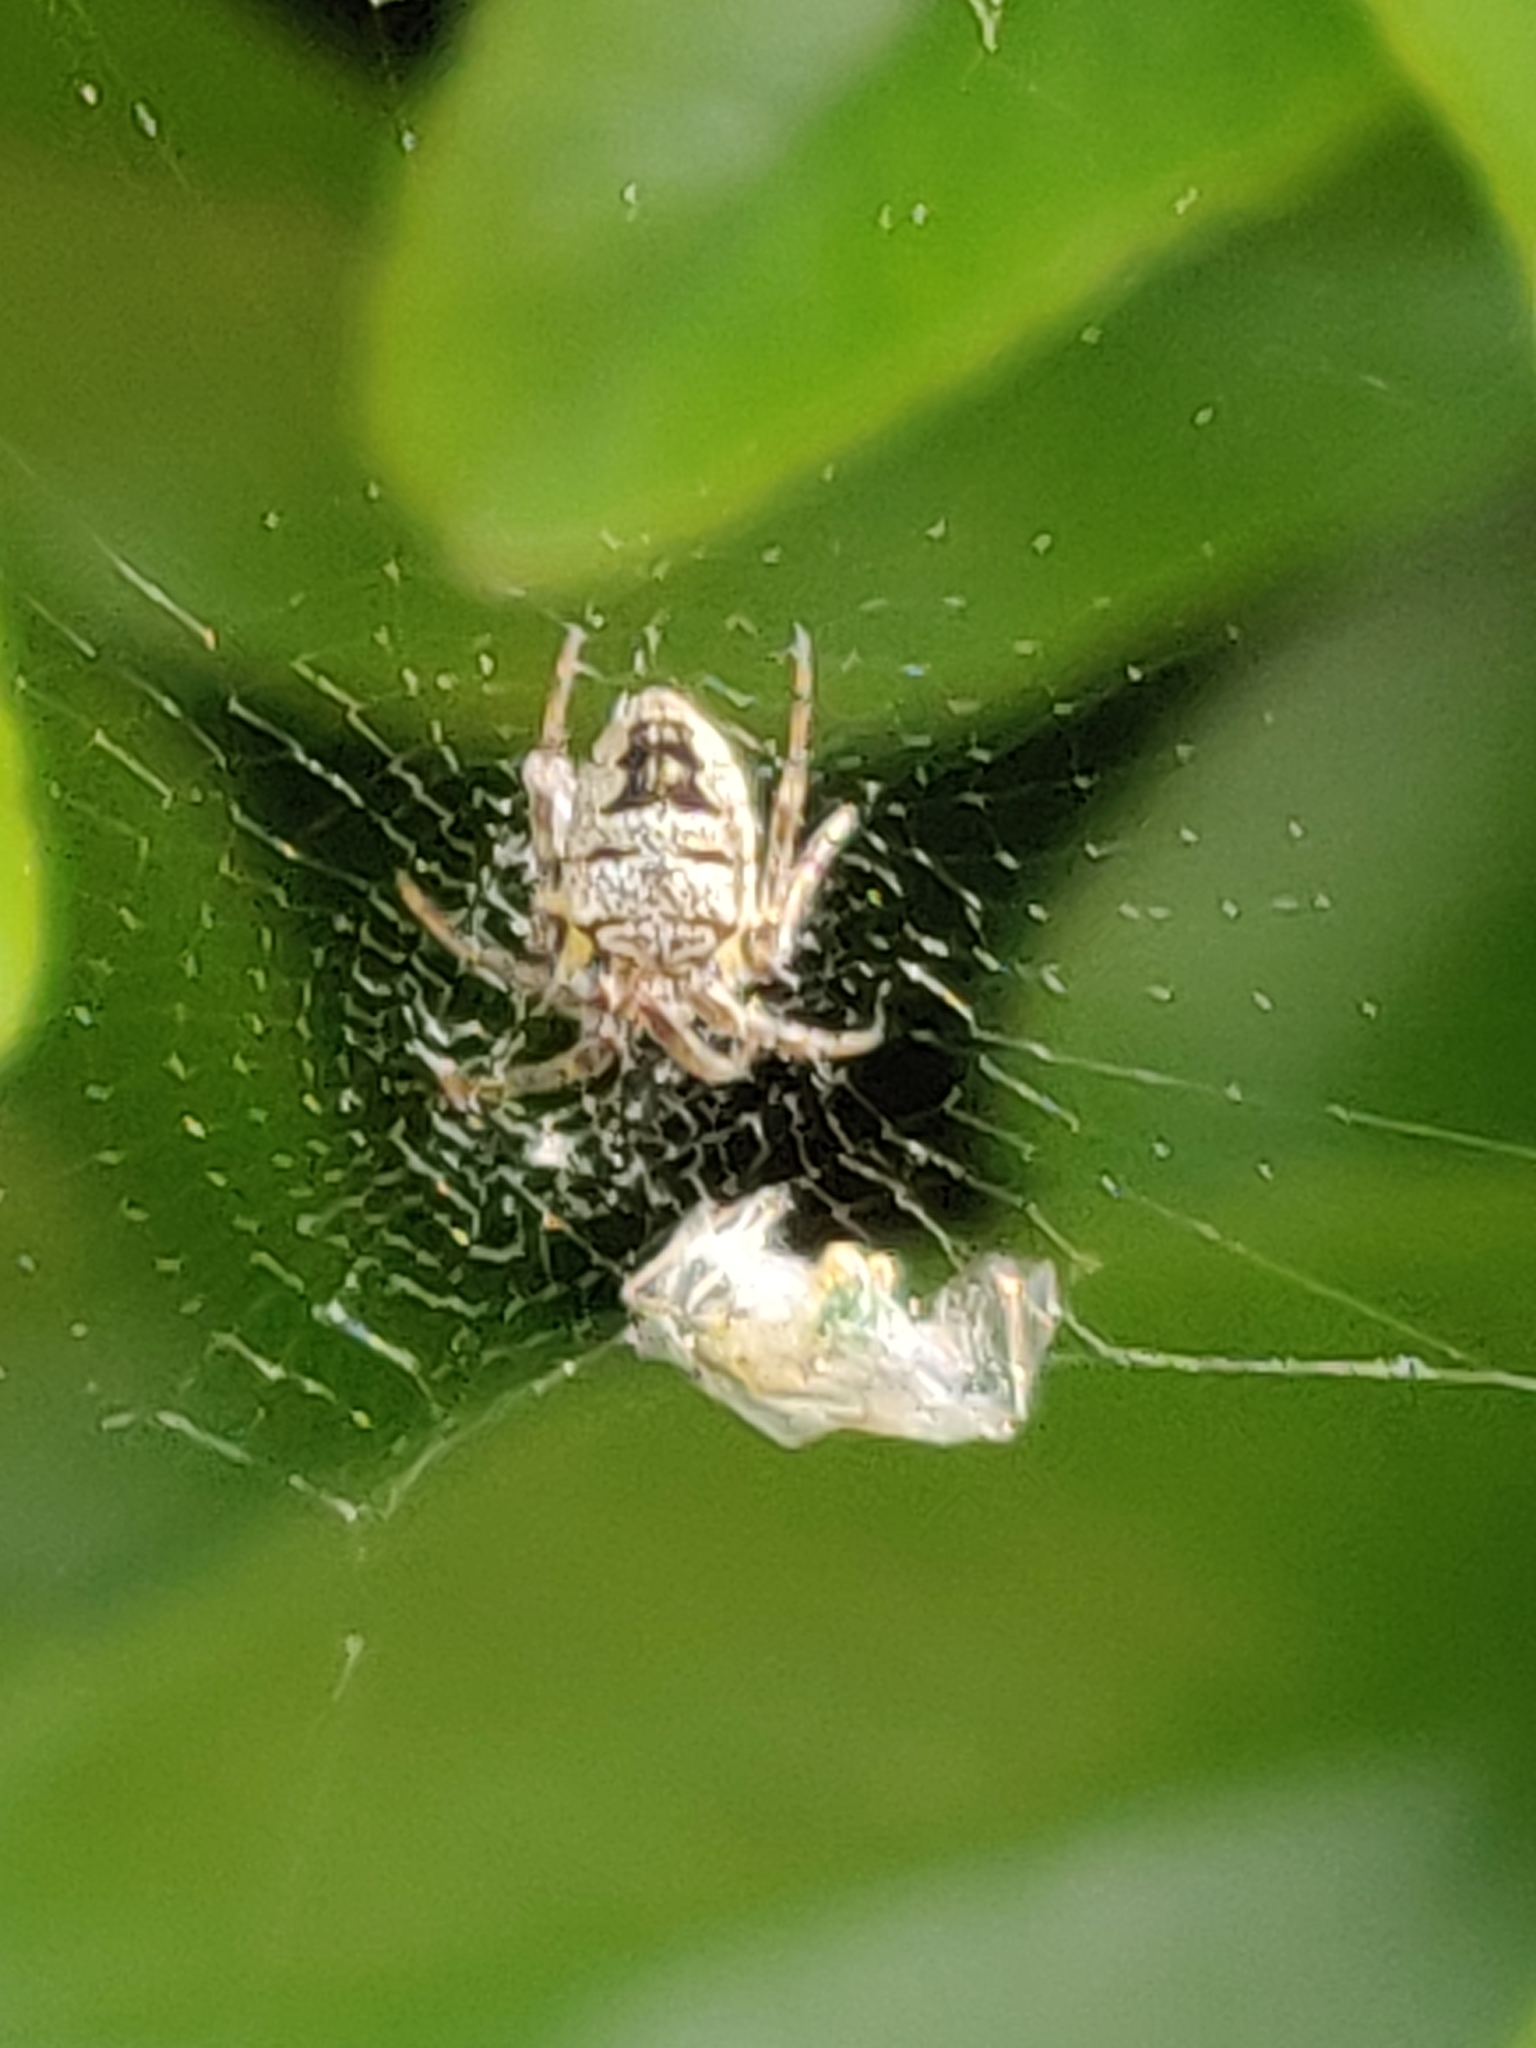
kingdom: Animalia
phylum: Arthropoda
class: Arachnida
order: Araneae
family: Araneidae
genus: Zilla
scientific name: Zilla diodia
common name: Zilla diodia
